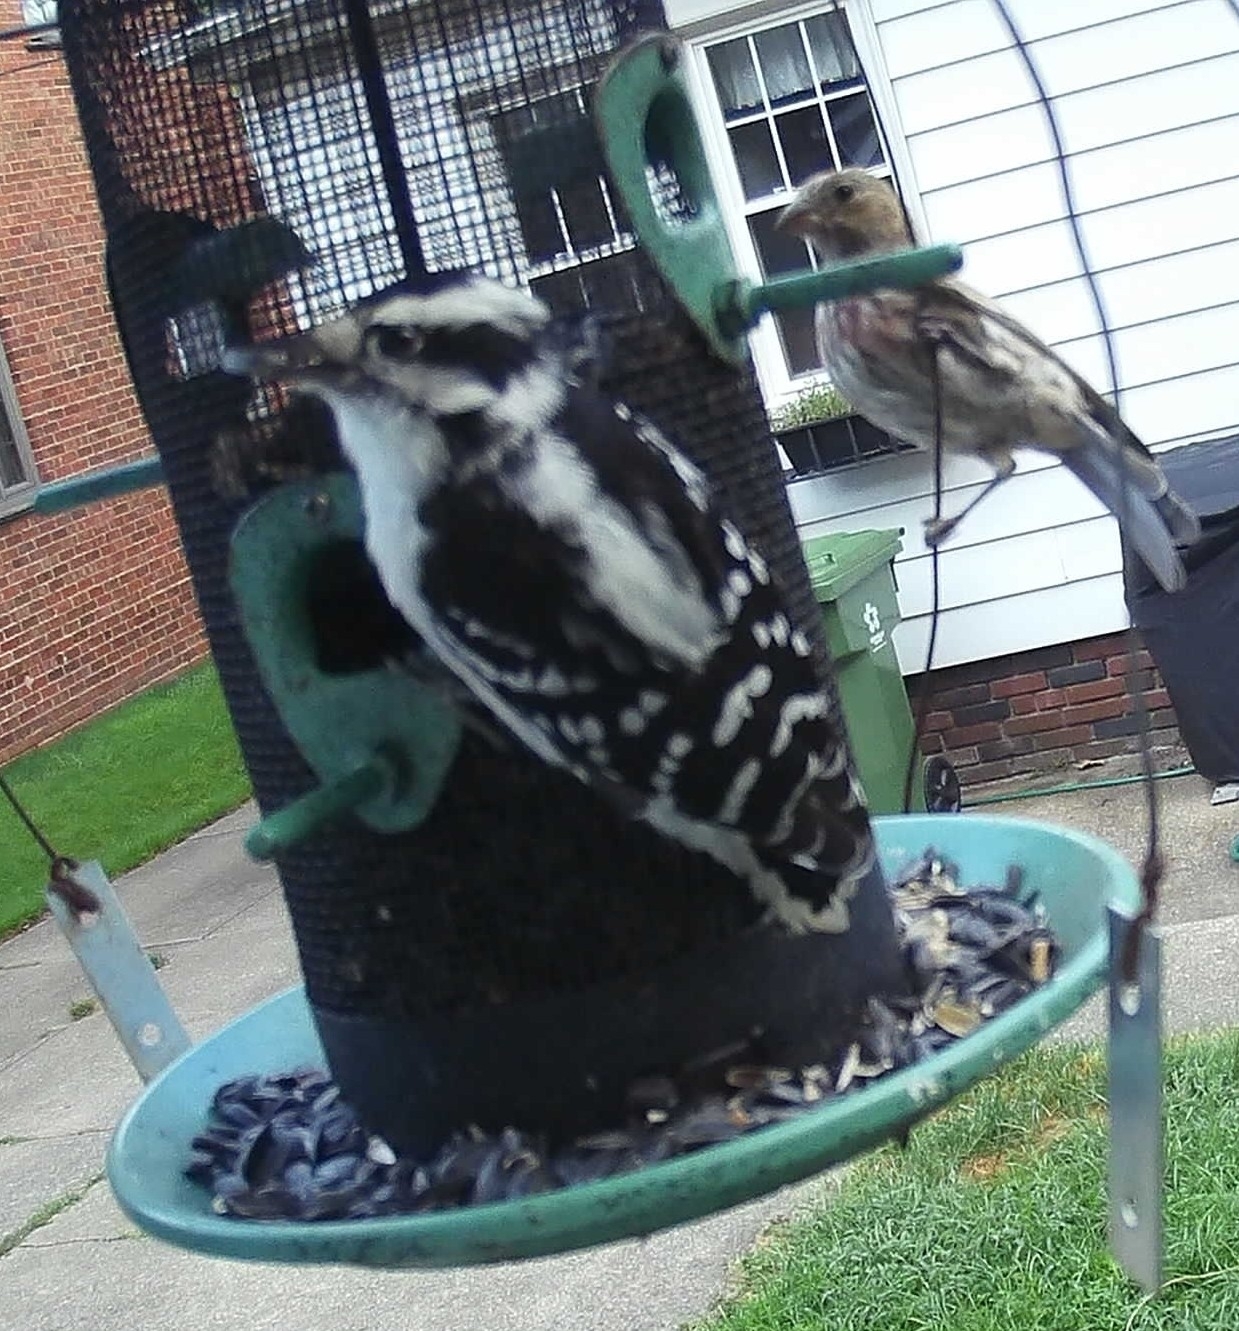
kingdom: Animalia
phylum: Chordata
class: Aves
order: Piciformes
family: Picidae
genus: Dryobates
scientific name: Dryobates pubescens
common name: Downy woodpecker
